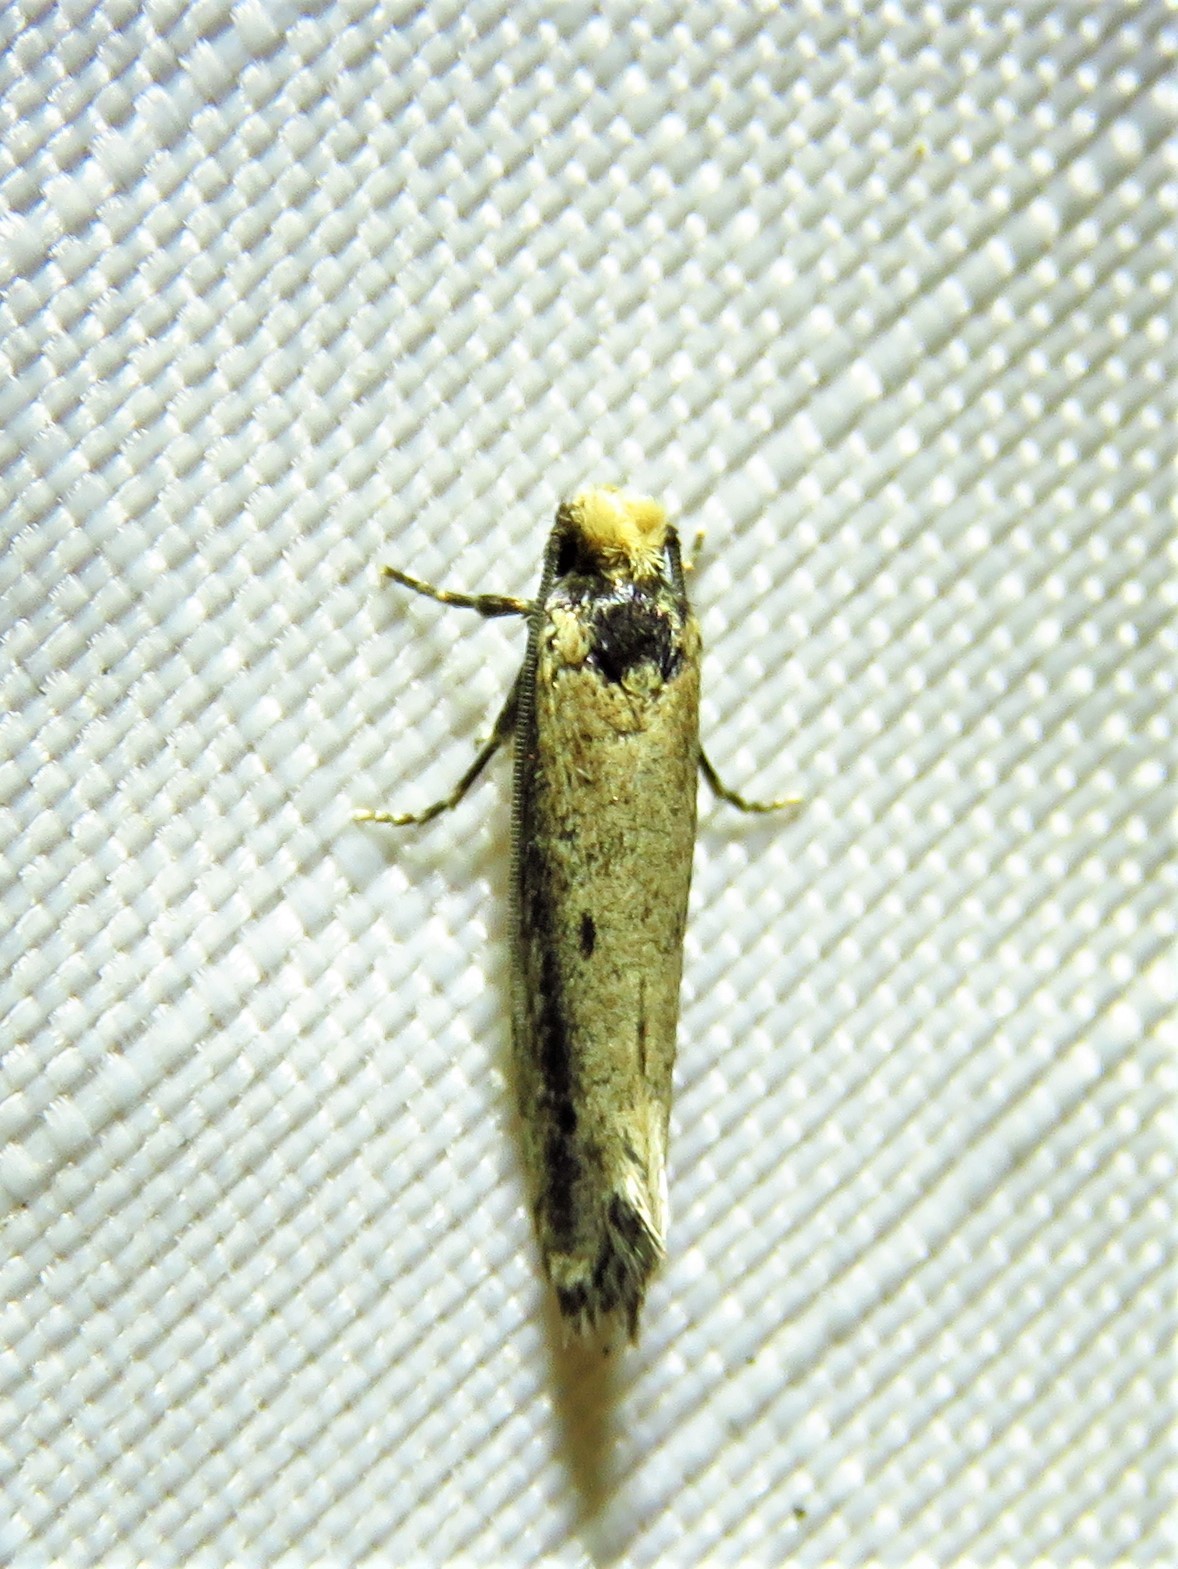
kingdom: Animalia
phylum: Arthropoda
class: Insecta
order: Lepidoptera
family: Tineidae
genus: Tinea
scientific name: Tinea apicimaculella
